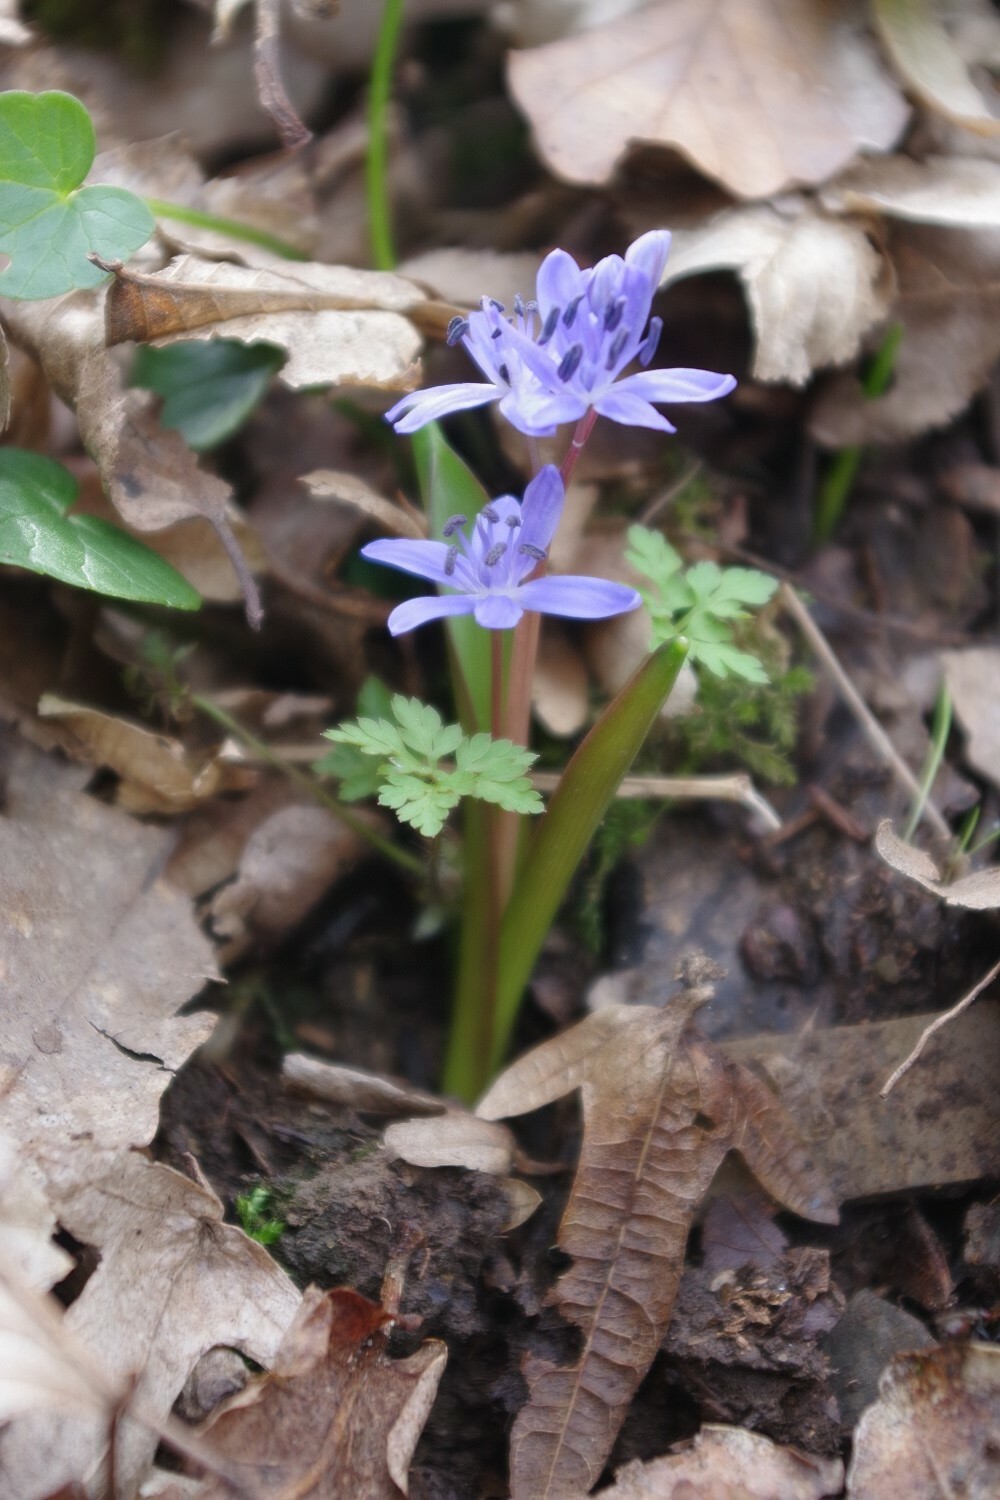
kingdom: Plantae
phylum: Tracheophyta
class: Liliopsida
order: Asparagales
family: Asparagaceae
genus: Scilla
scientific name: Scilla bifolia
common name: Alpine squill
